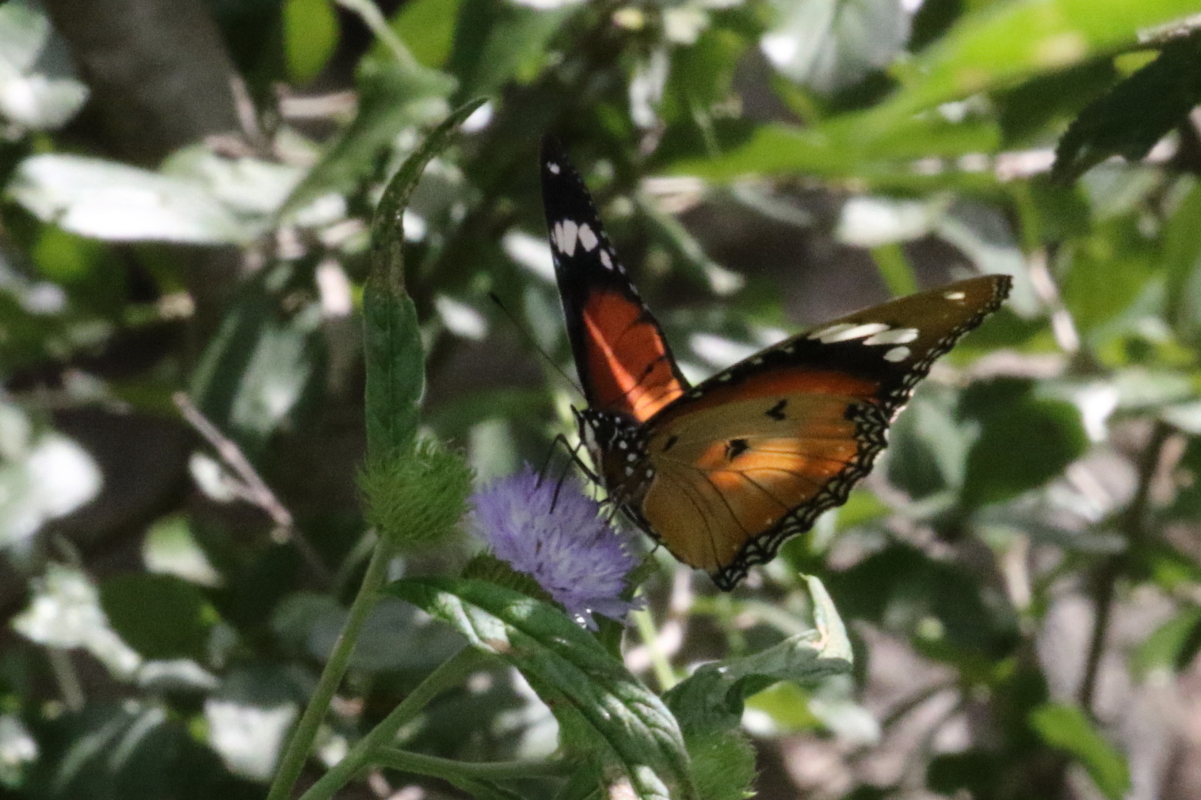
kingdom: Animalia
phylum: Arthropoda
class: Insecta
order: Lepidoptera
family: Nymphalidae
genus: Hypolimnas
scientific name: Hypolimnas misippus
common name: False plain tiger
